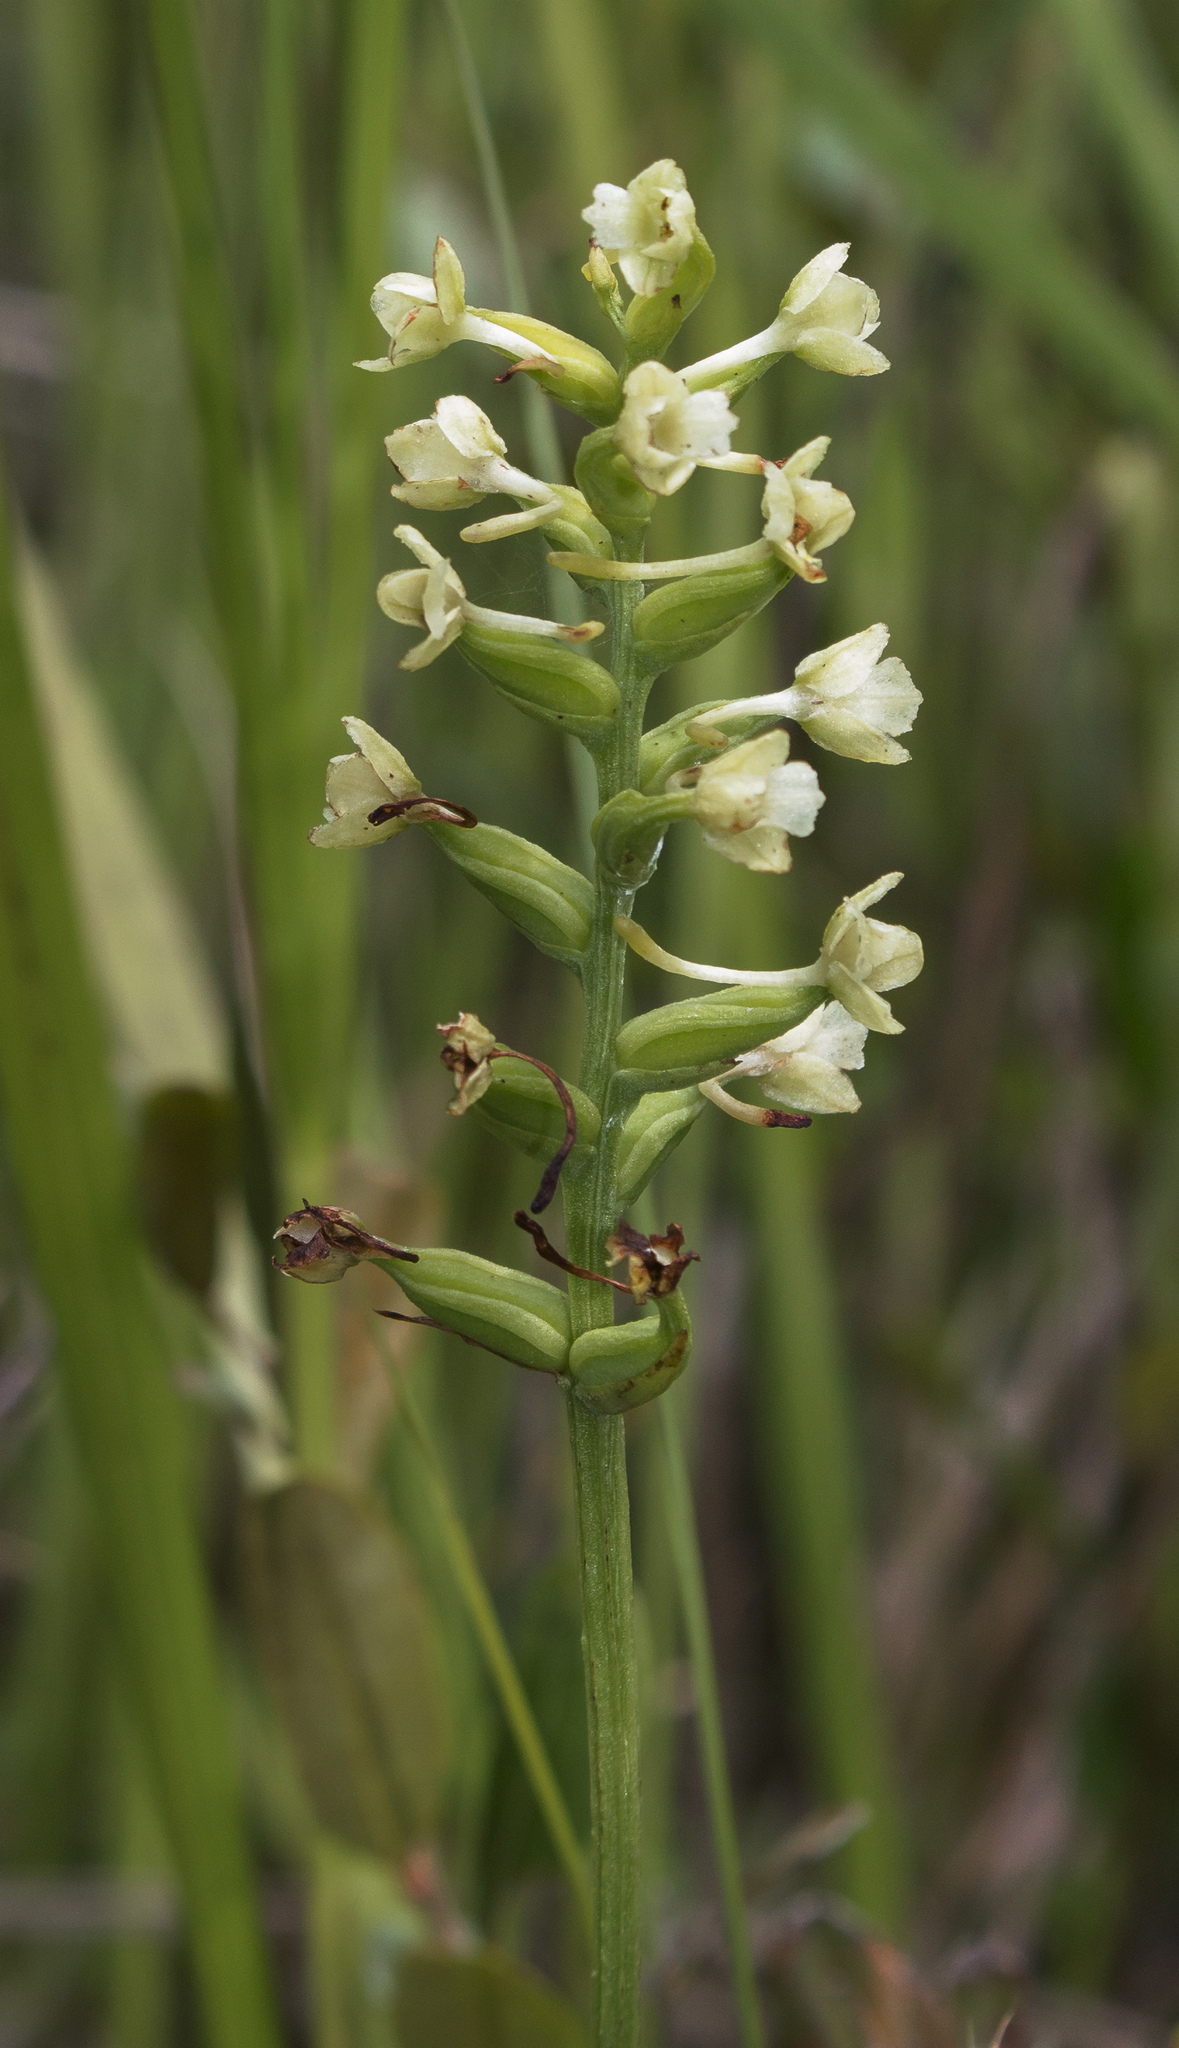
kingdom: Plantae
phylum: Tracheophyta
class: Liliopsida
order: Asparagales
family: Orchidaceae
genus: Platanthera
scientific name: Platanthera clavellata
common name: Club-spur orchid
